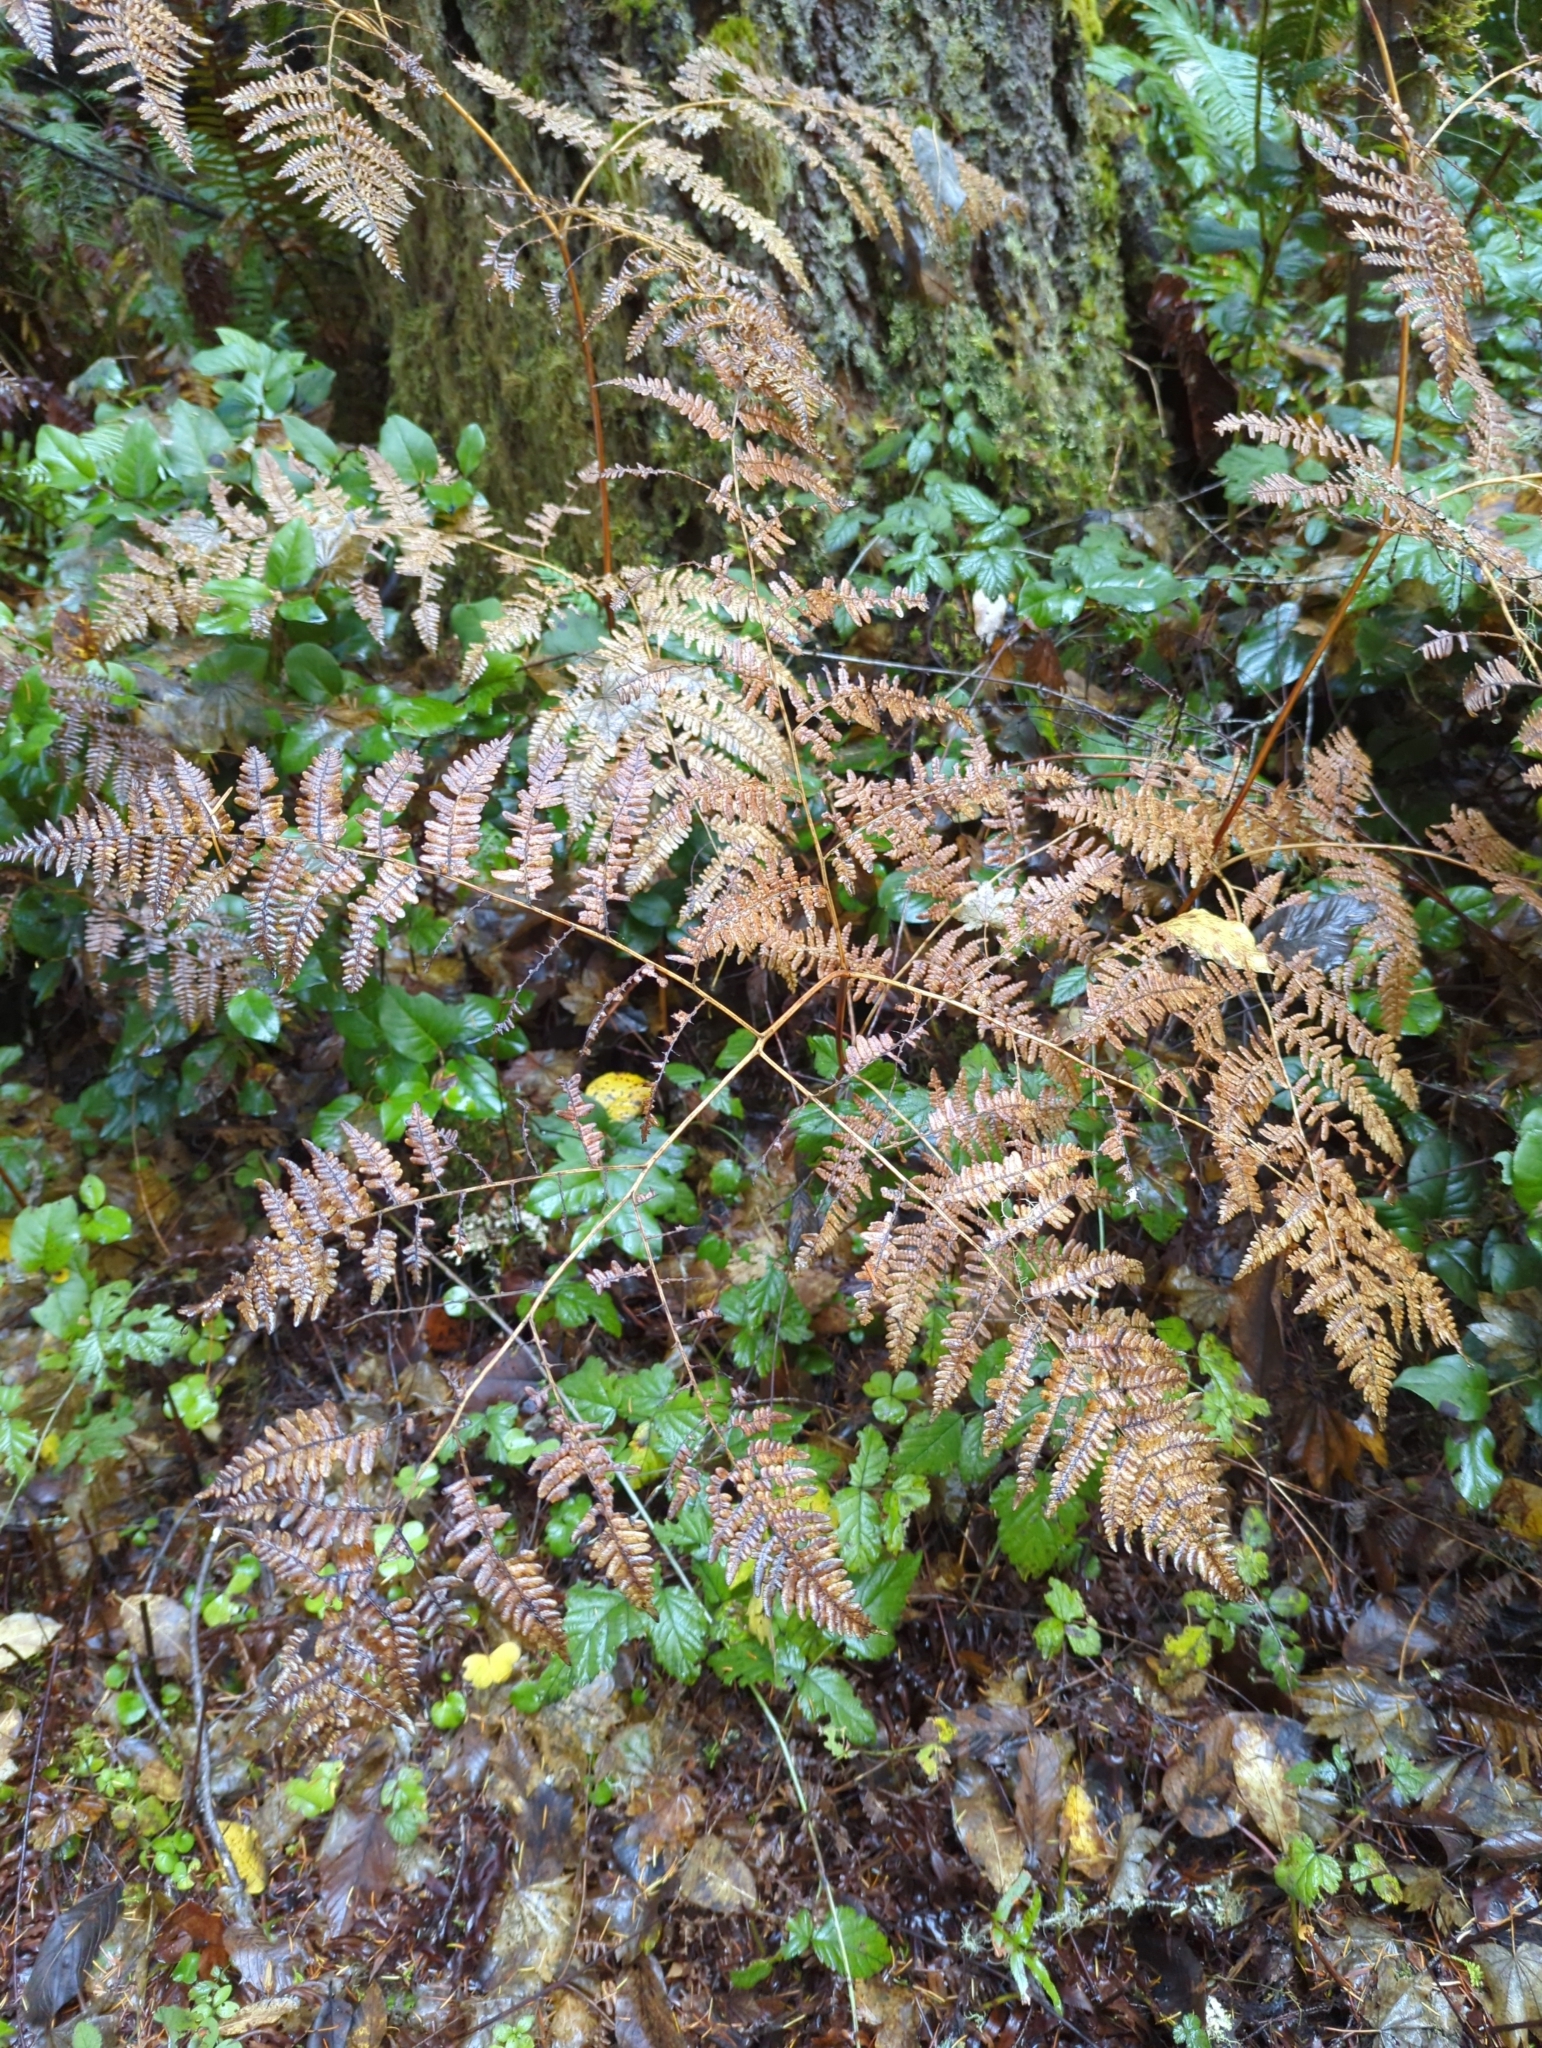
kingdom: Plantae
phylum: Tracheophyta
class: Polypodiopsida
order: Polypodiales
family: Dennstaedtiaceae
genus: Pteridium
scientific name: Pteridium aquilinum
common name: Bracken
